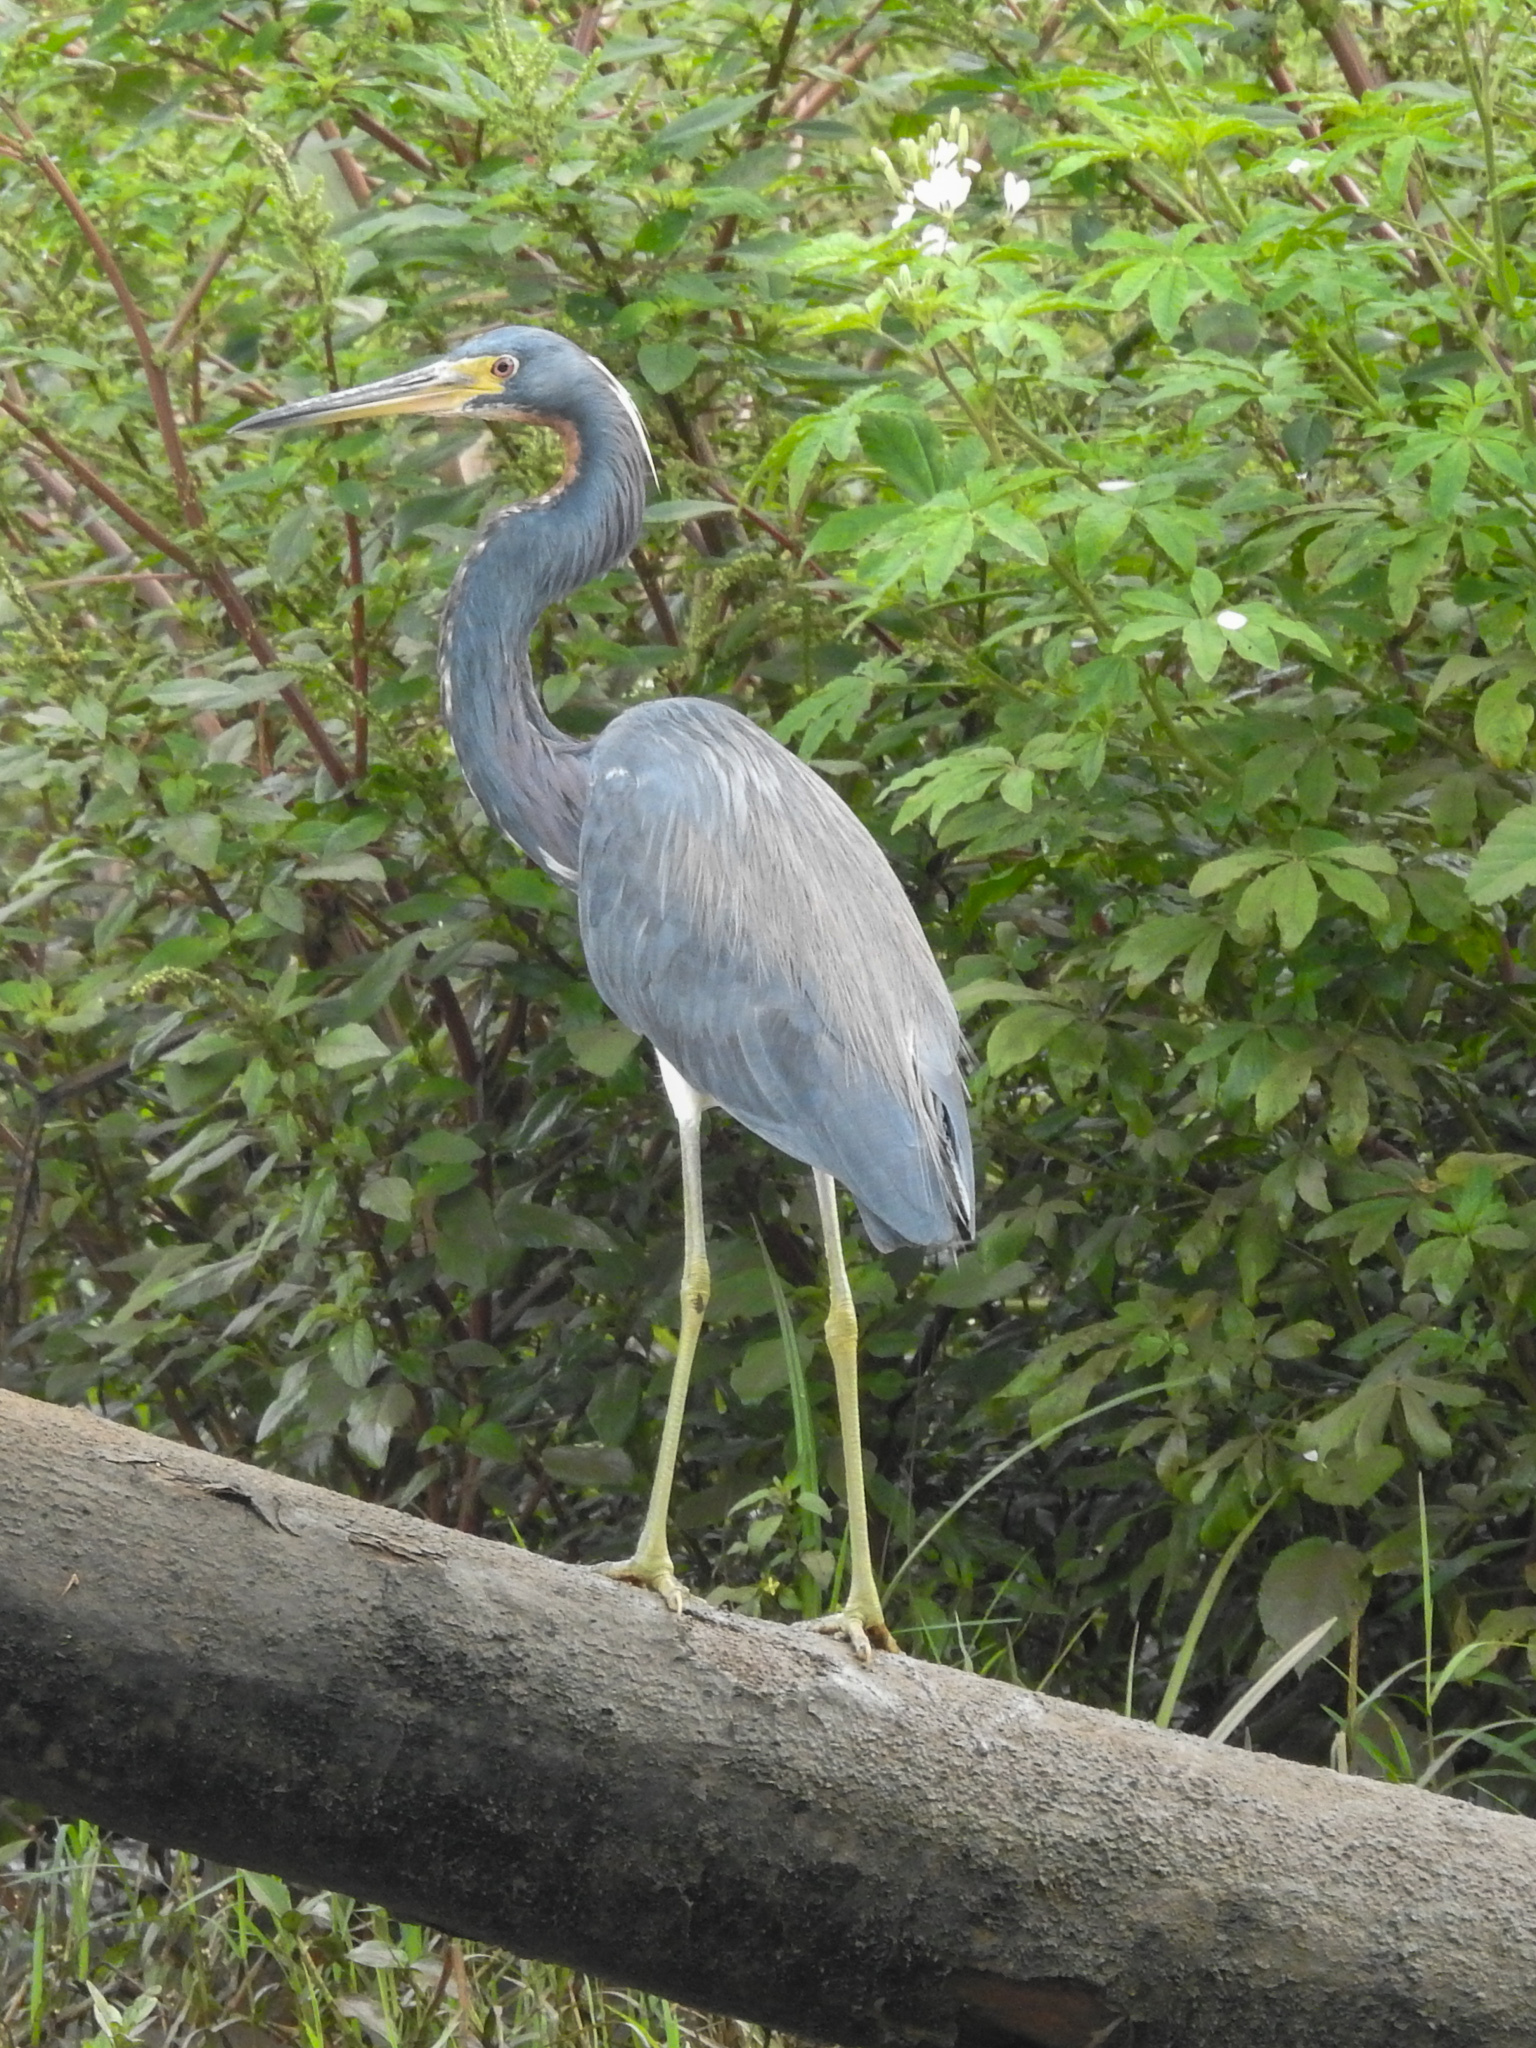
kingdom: Animalia
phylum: Chordata
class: Aves
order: Pelecaniformes
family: Ardeidae
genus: Egretta
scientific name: Egretta tricolor
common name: Tricolored heron
